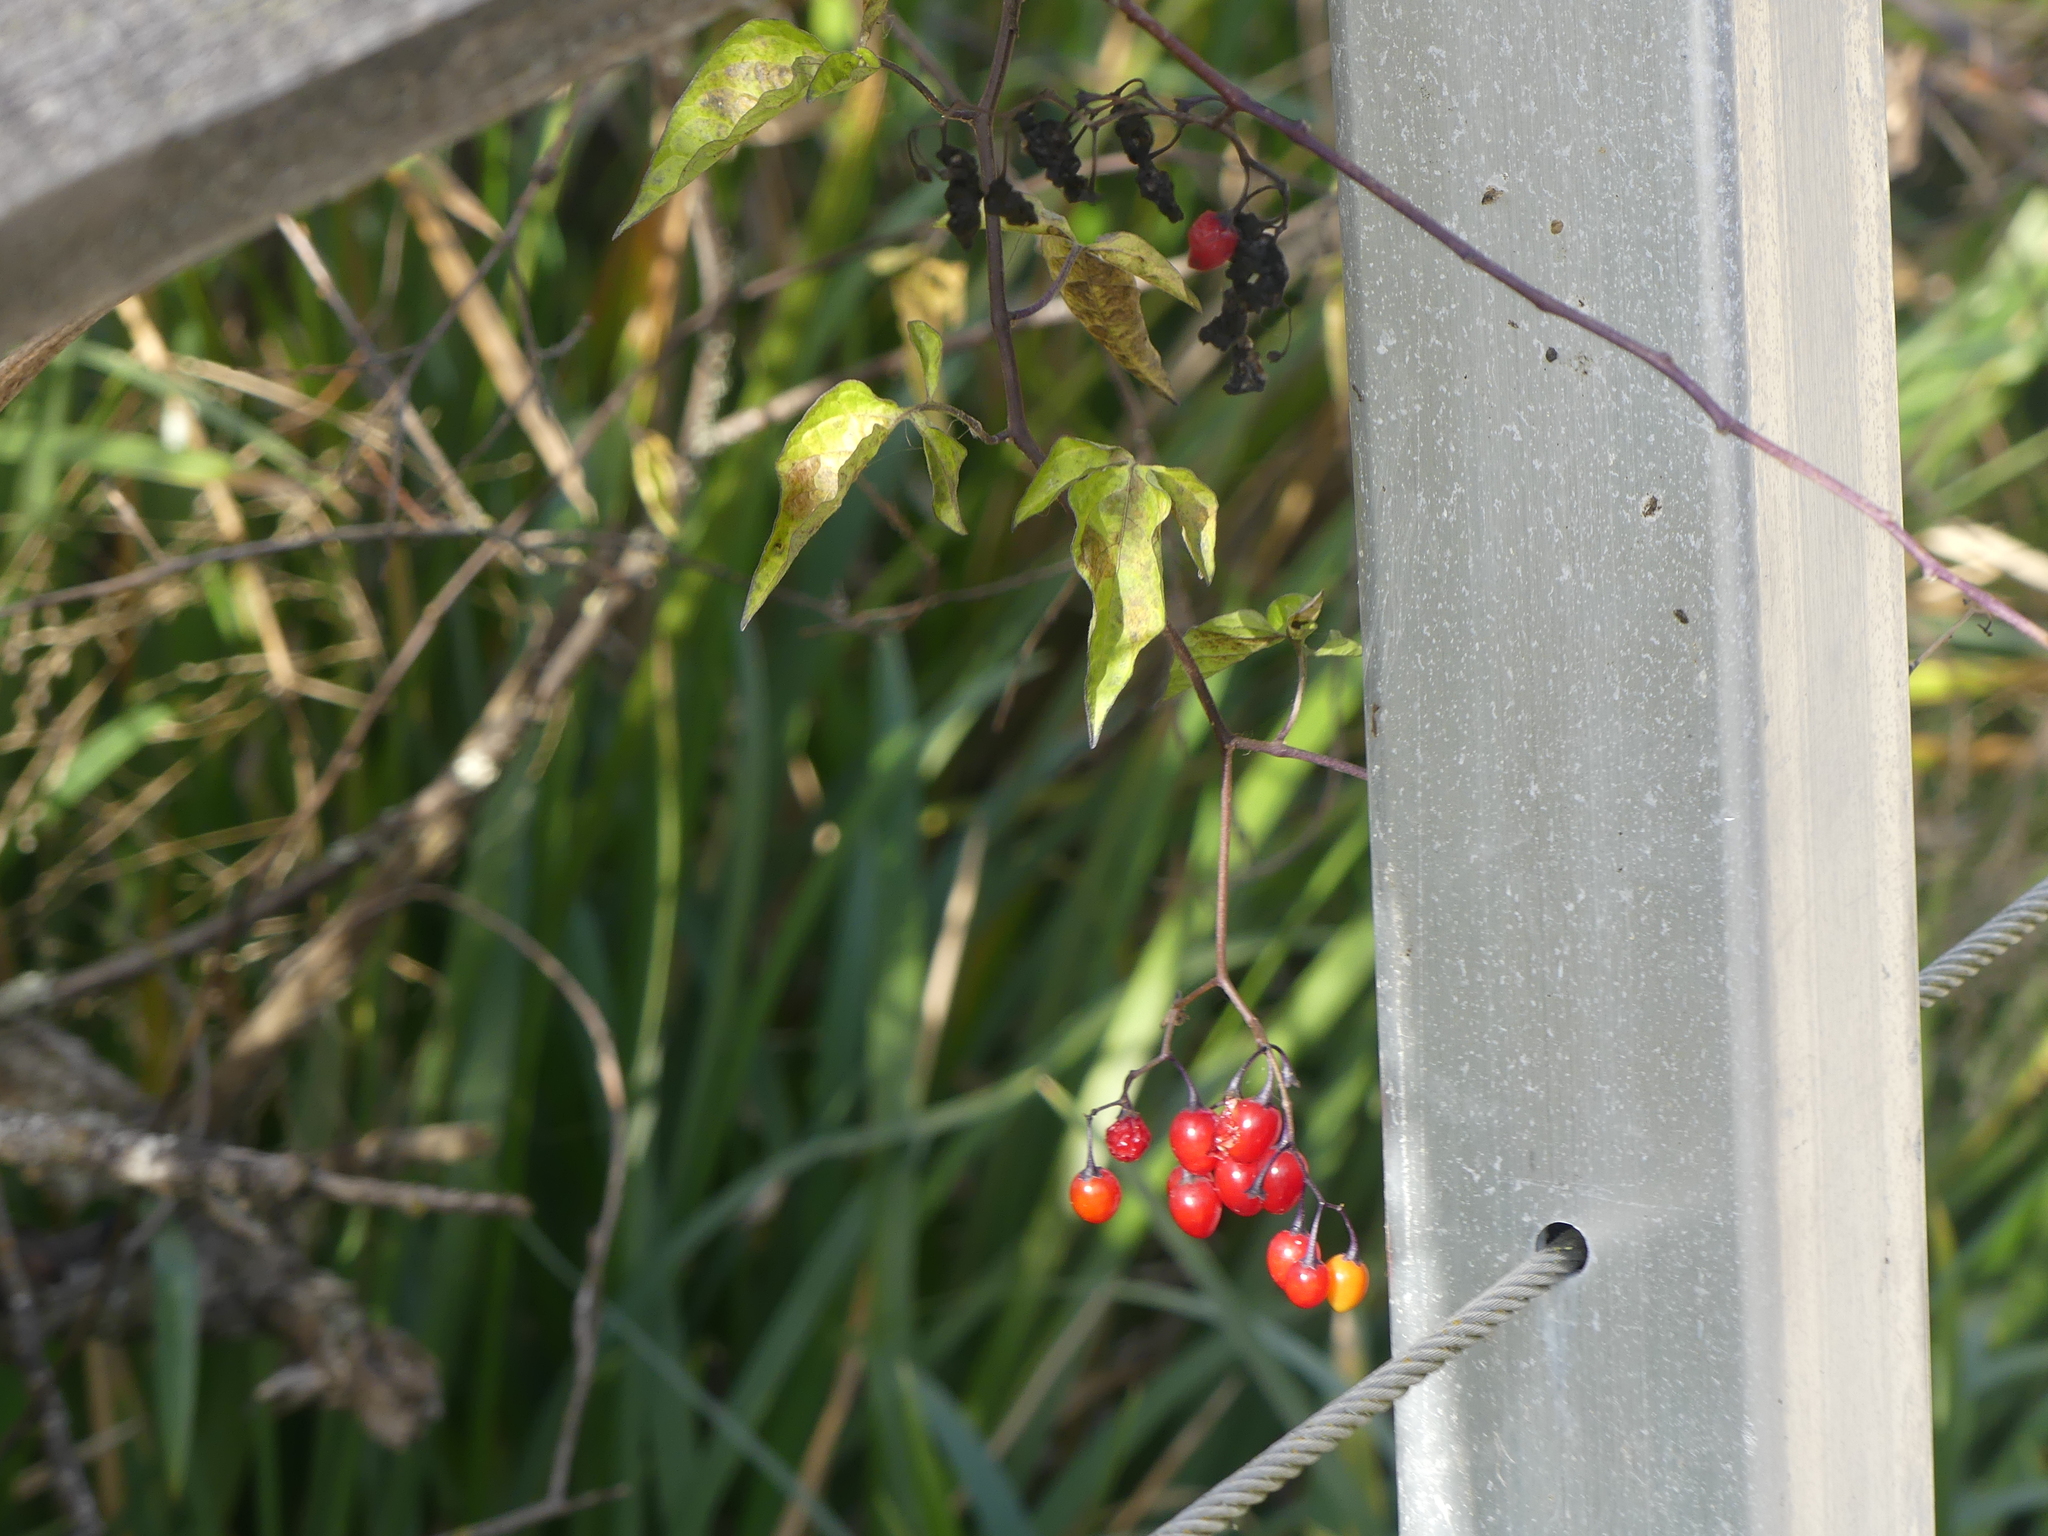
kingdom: Plantae
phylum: Tracheophyta
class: Magnoliopsida
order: Solanales
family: Solanaceae
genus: Solanum
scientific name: Solanum dulcamara
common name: Climbing nightshade
